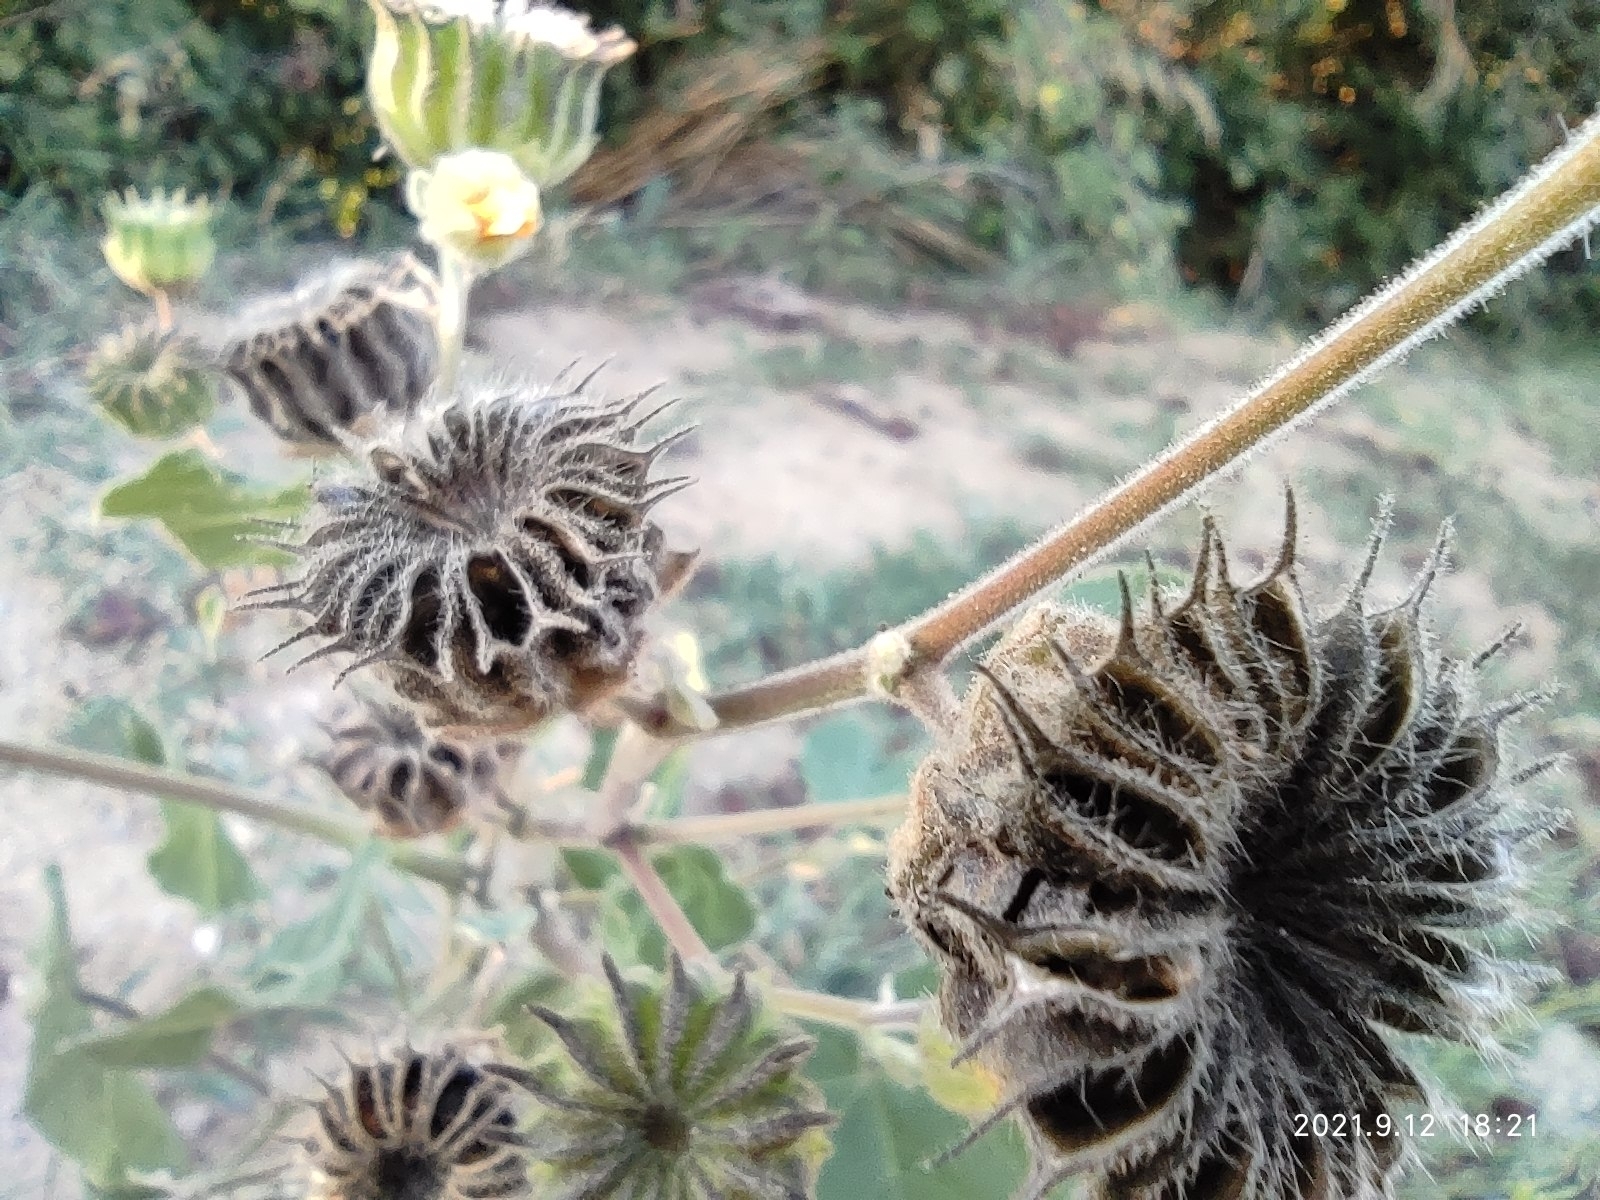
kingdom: Plantae
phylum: Tracheophyta
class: Magnoliopsida
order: Malvales
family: Malvaceae
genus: Abutilon
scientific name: Abutilon theophrasti
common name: Velvetleaf
